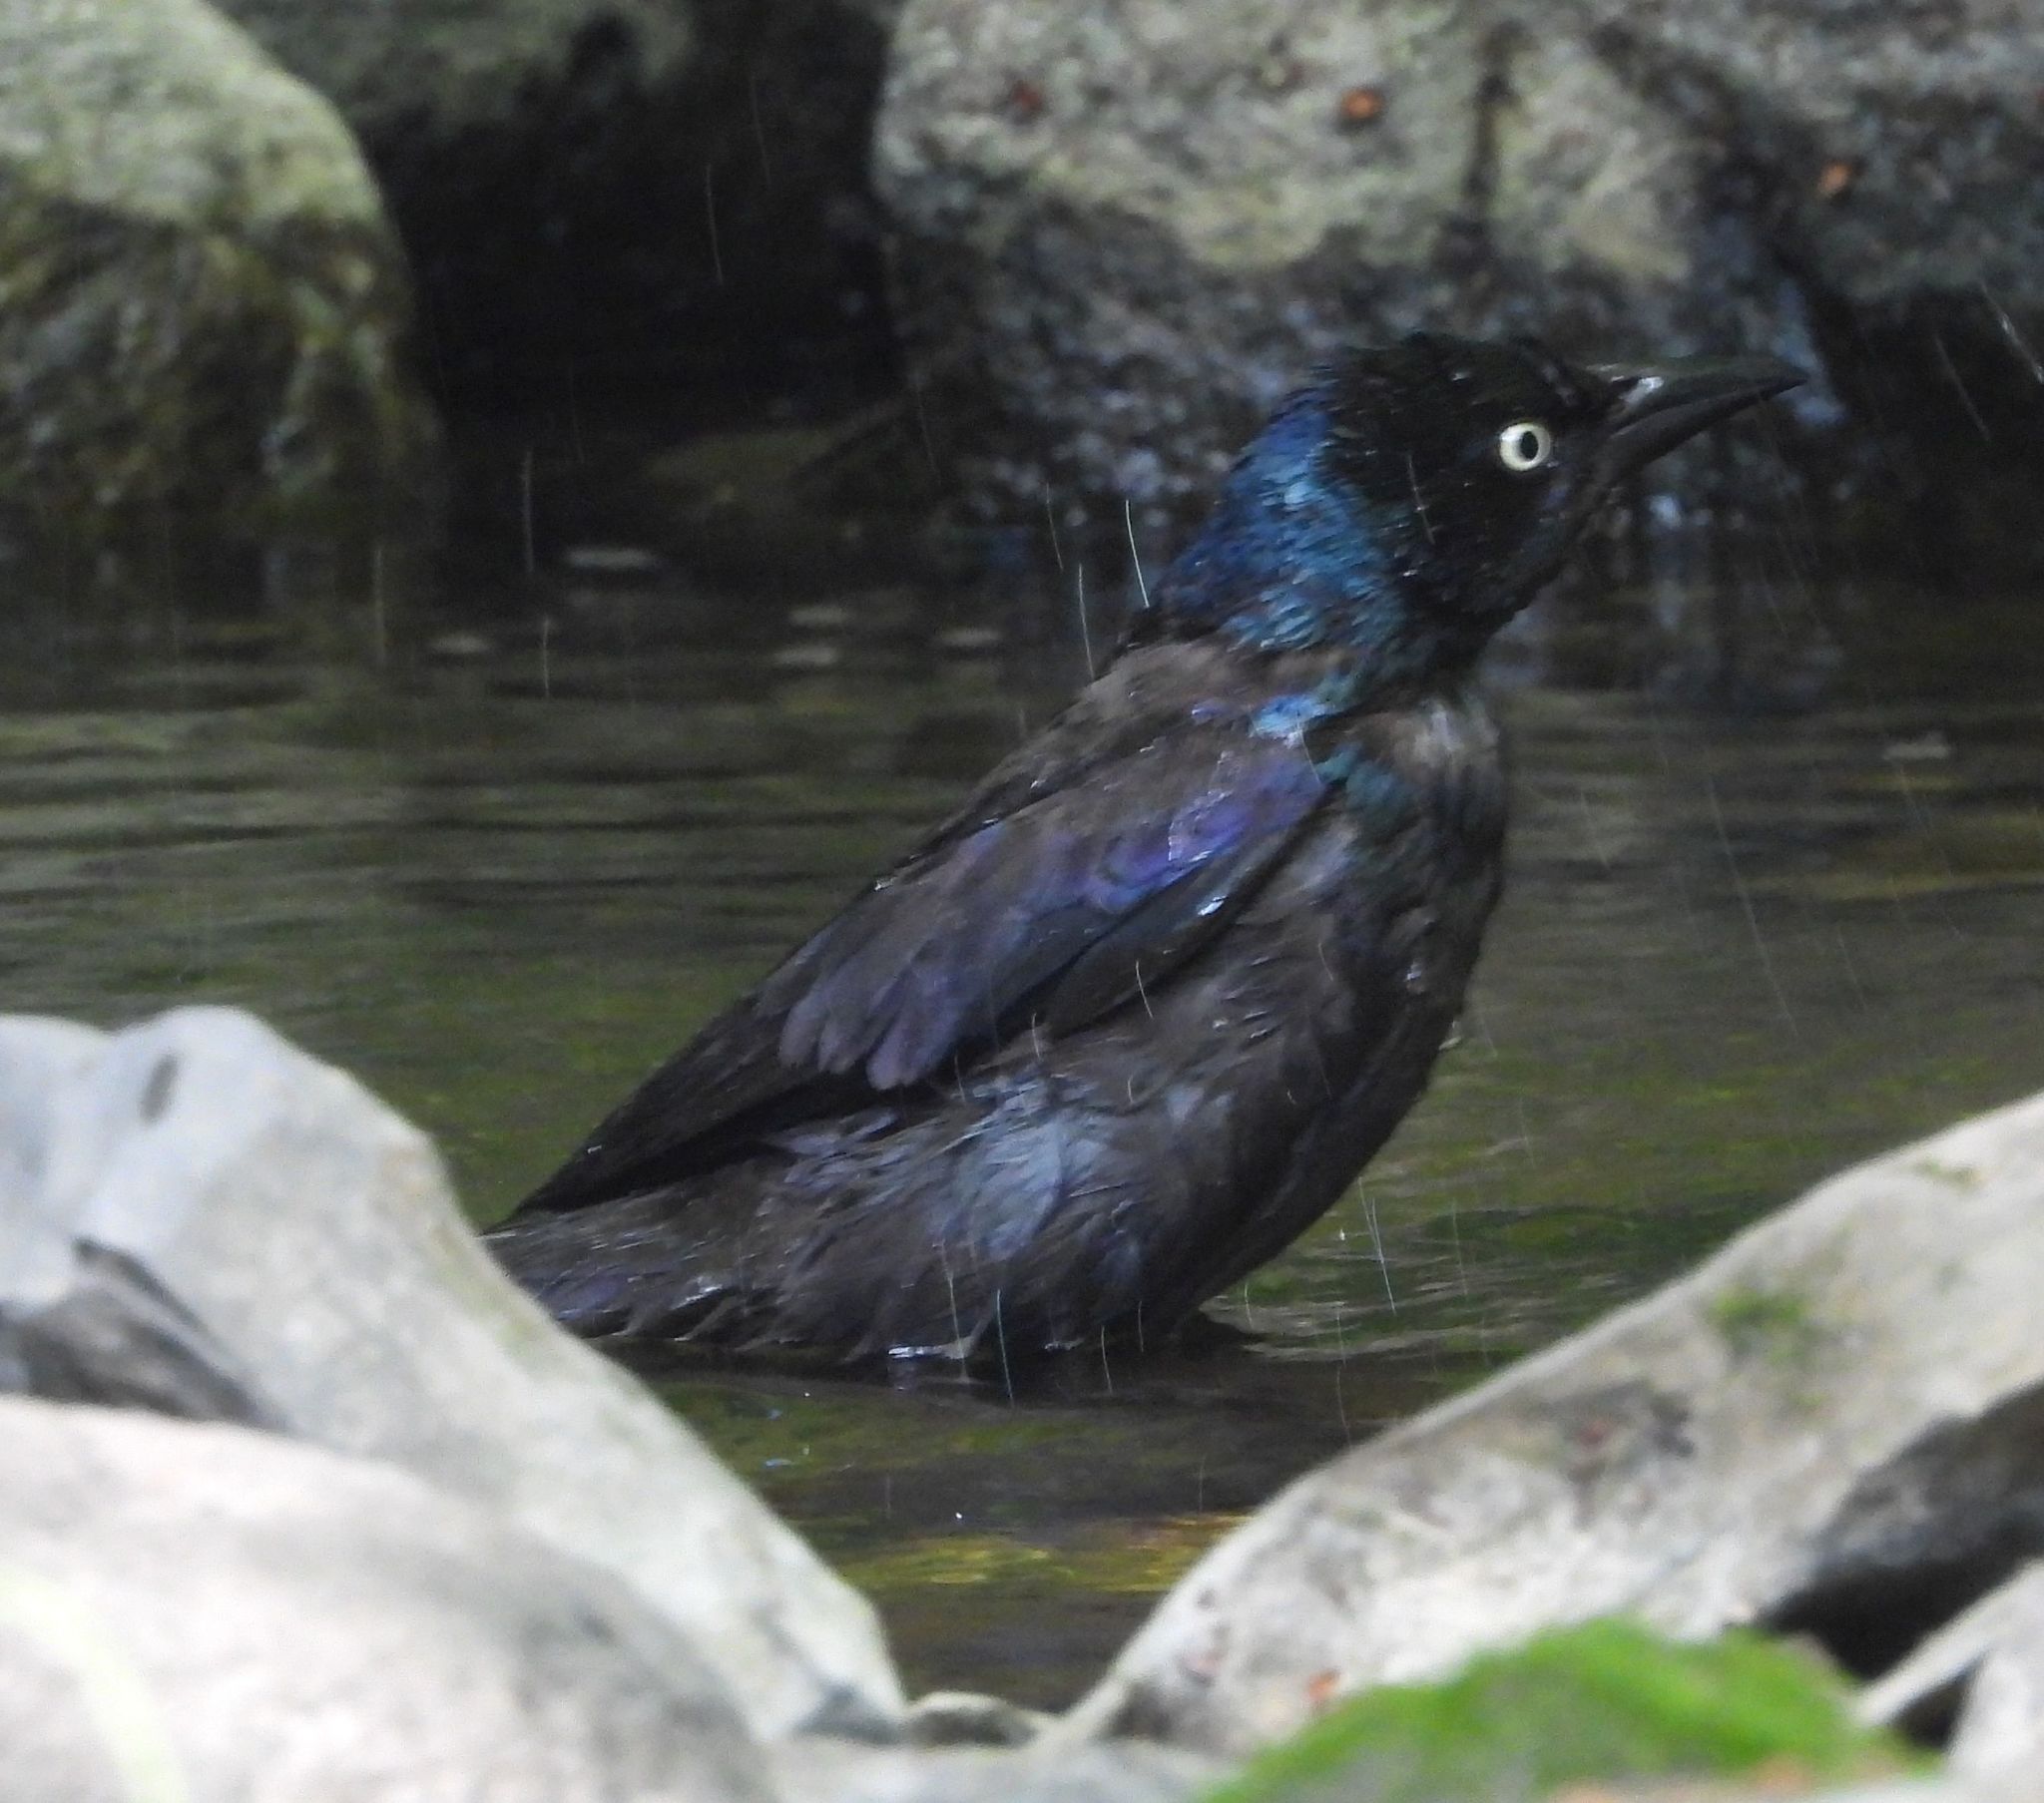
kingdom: Animalia
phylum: Chordata
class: Aves
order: Passeriformes
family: Icteridae
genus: Quiscalus
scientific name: Quiscalus quiscula
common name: Common grackle
